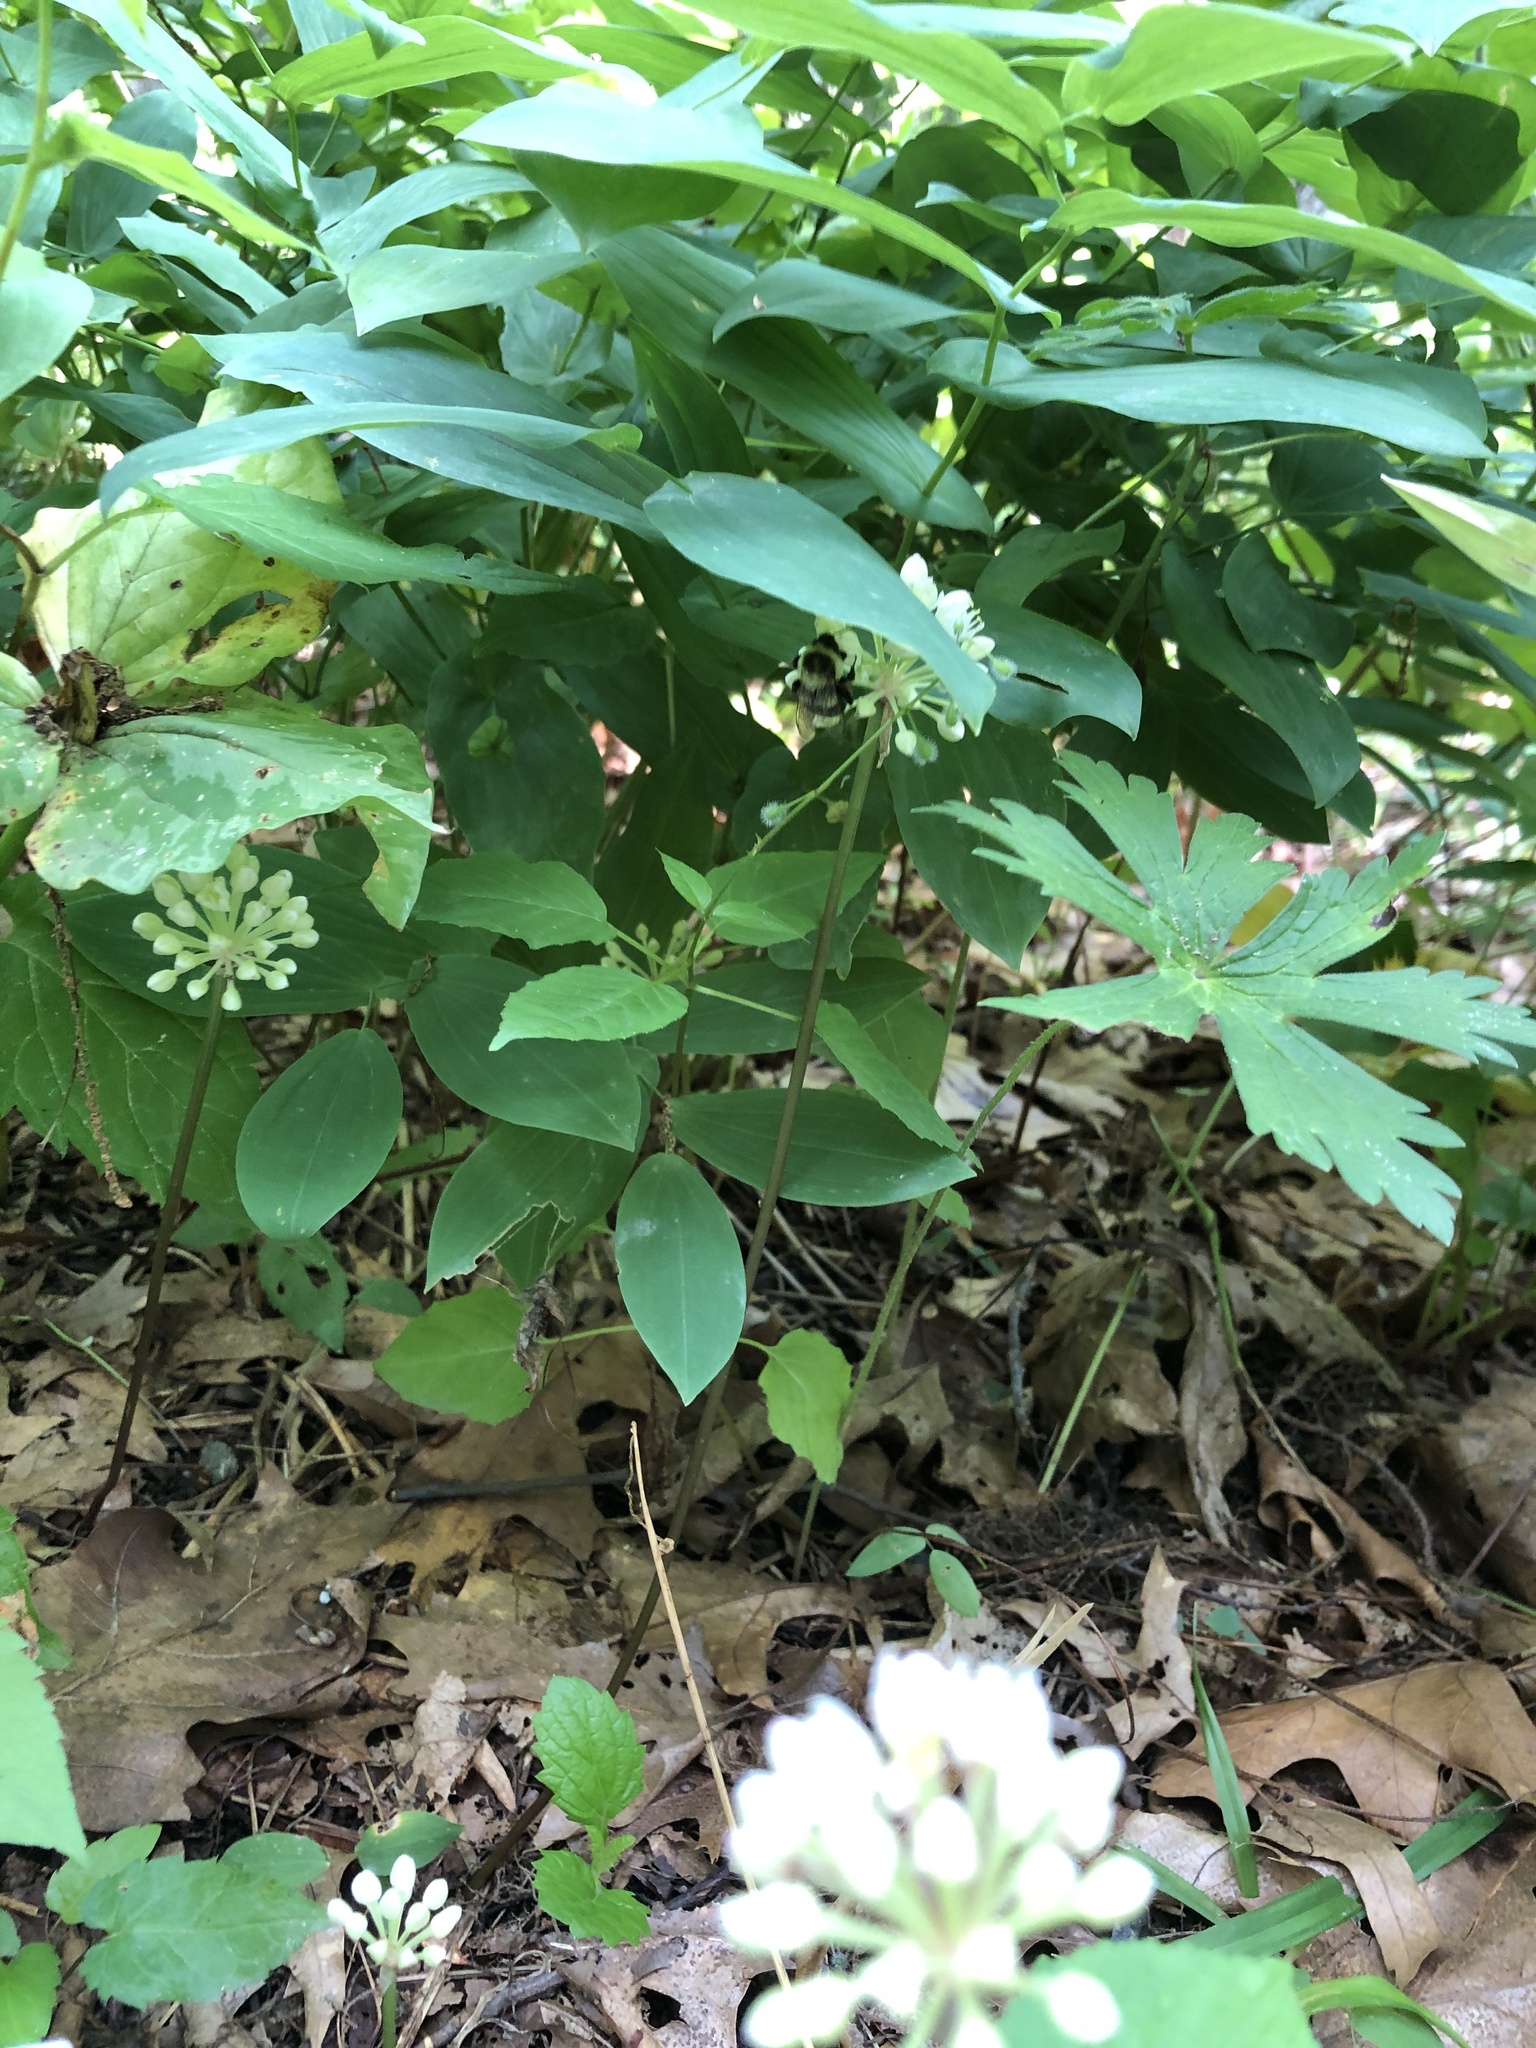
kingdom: Animalia
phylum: Arthropoda
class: Insecta
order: Hymenoptera
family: Apidae
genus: Bombus
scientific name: Bombus impatiens
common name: Common eastern bumble bee
